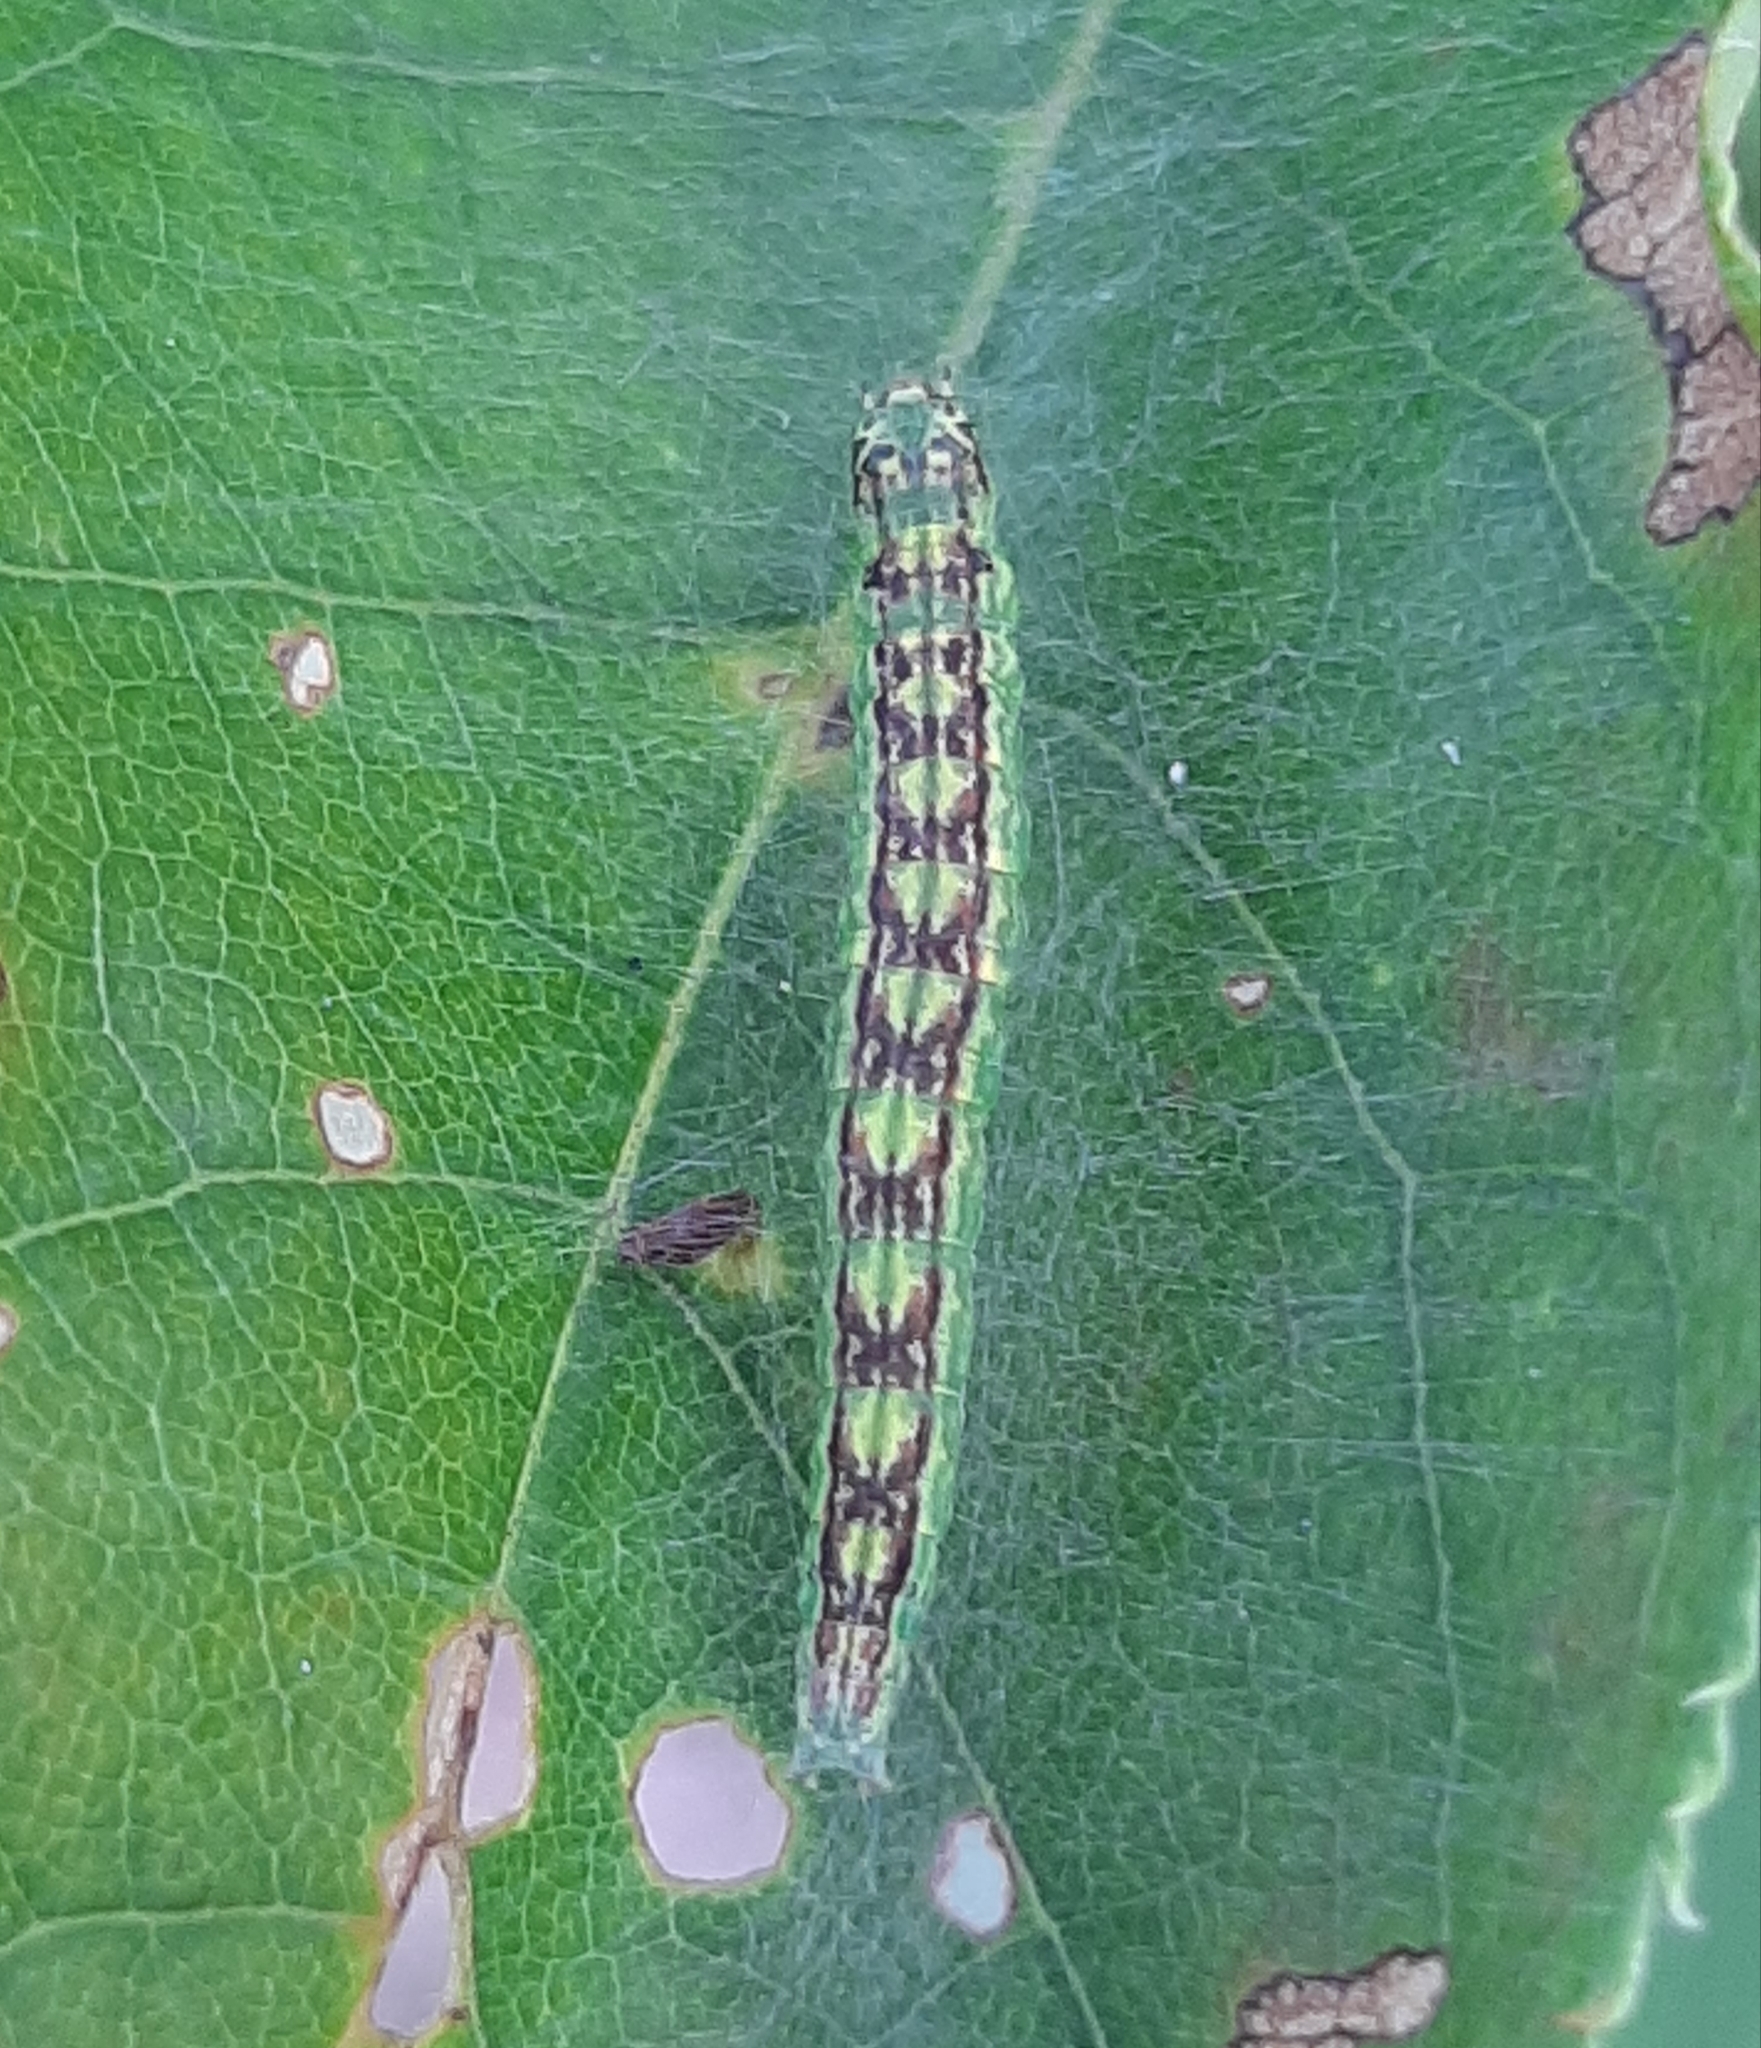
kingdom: Animalia
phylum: Arthropoda
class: Insecta
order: Lepidoptera
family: Pyralidae
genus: Oreana
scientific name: Oreana unicolorella
